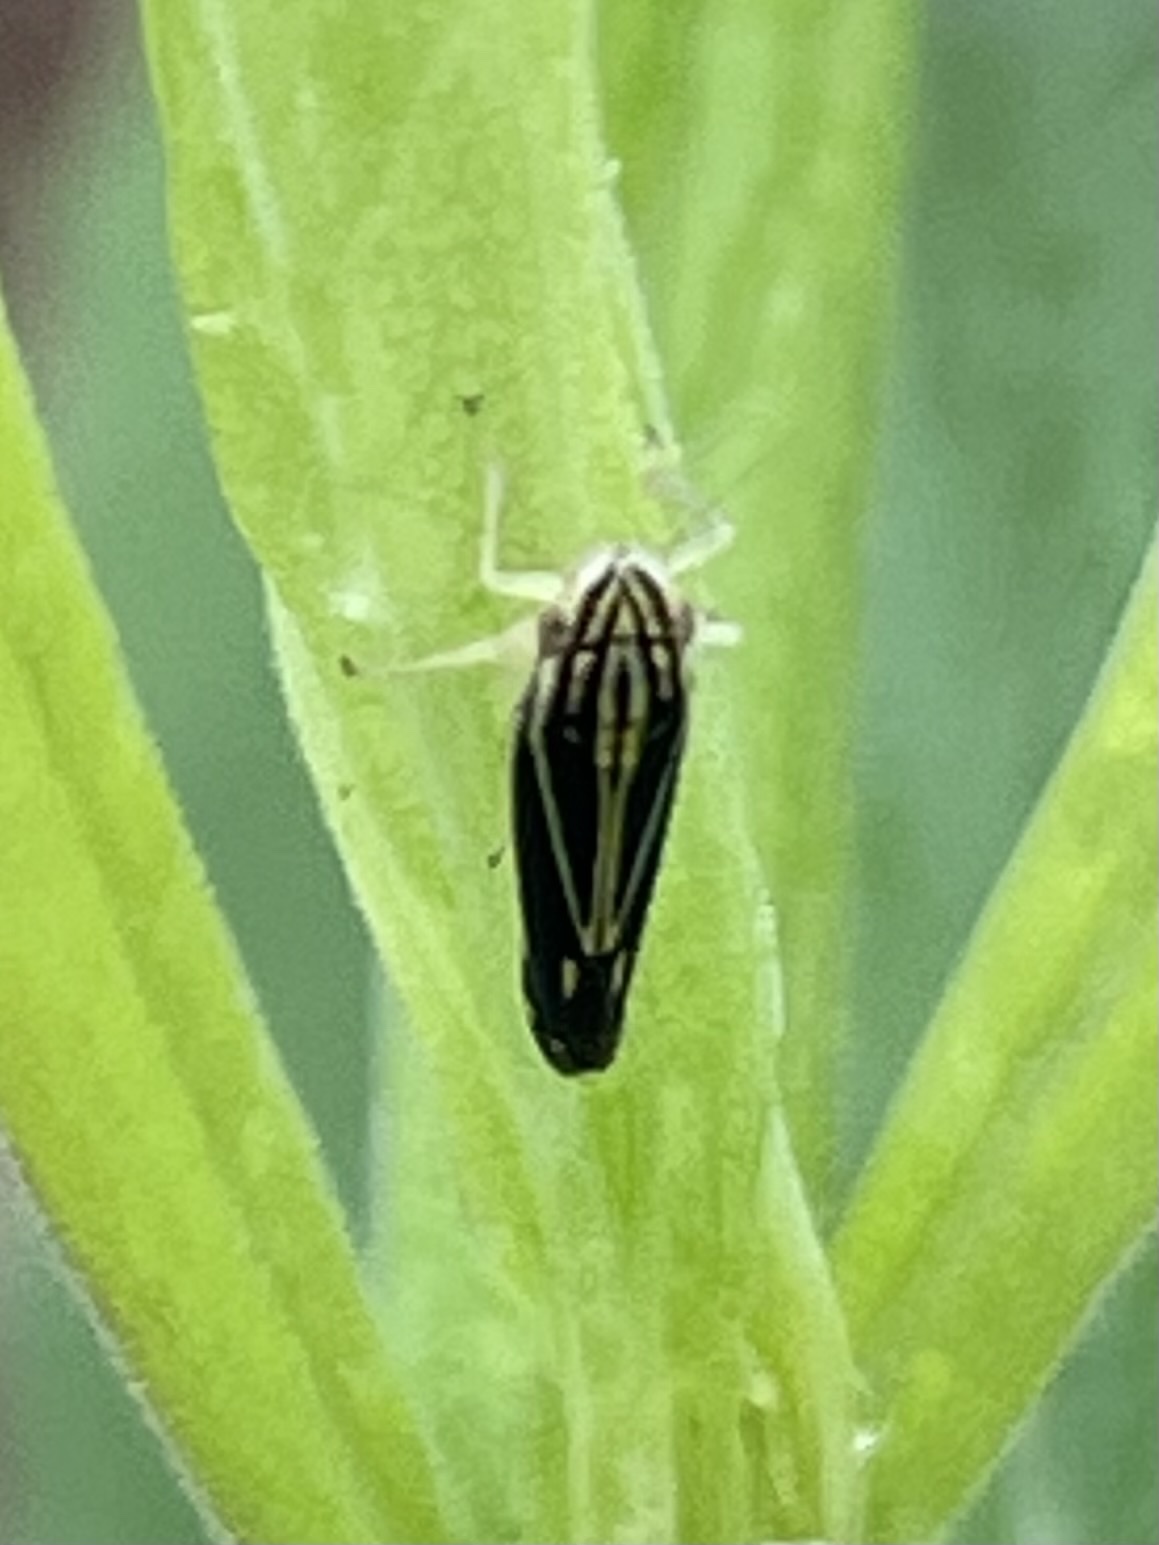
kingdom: Animalia
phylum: Arthropoda
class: Insecta
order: Hemiptera
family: Cicadellidae
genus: Sibovia
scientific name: Sibovia occatoria
